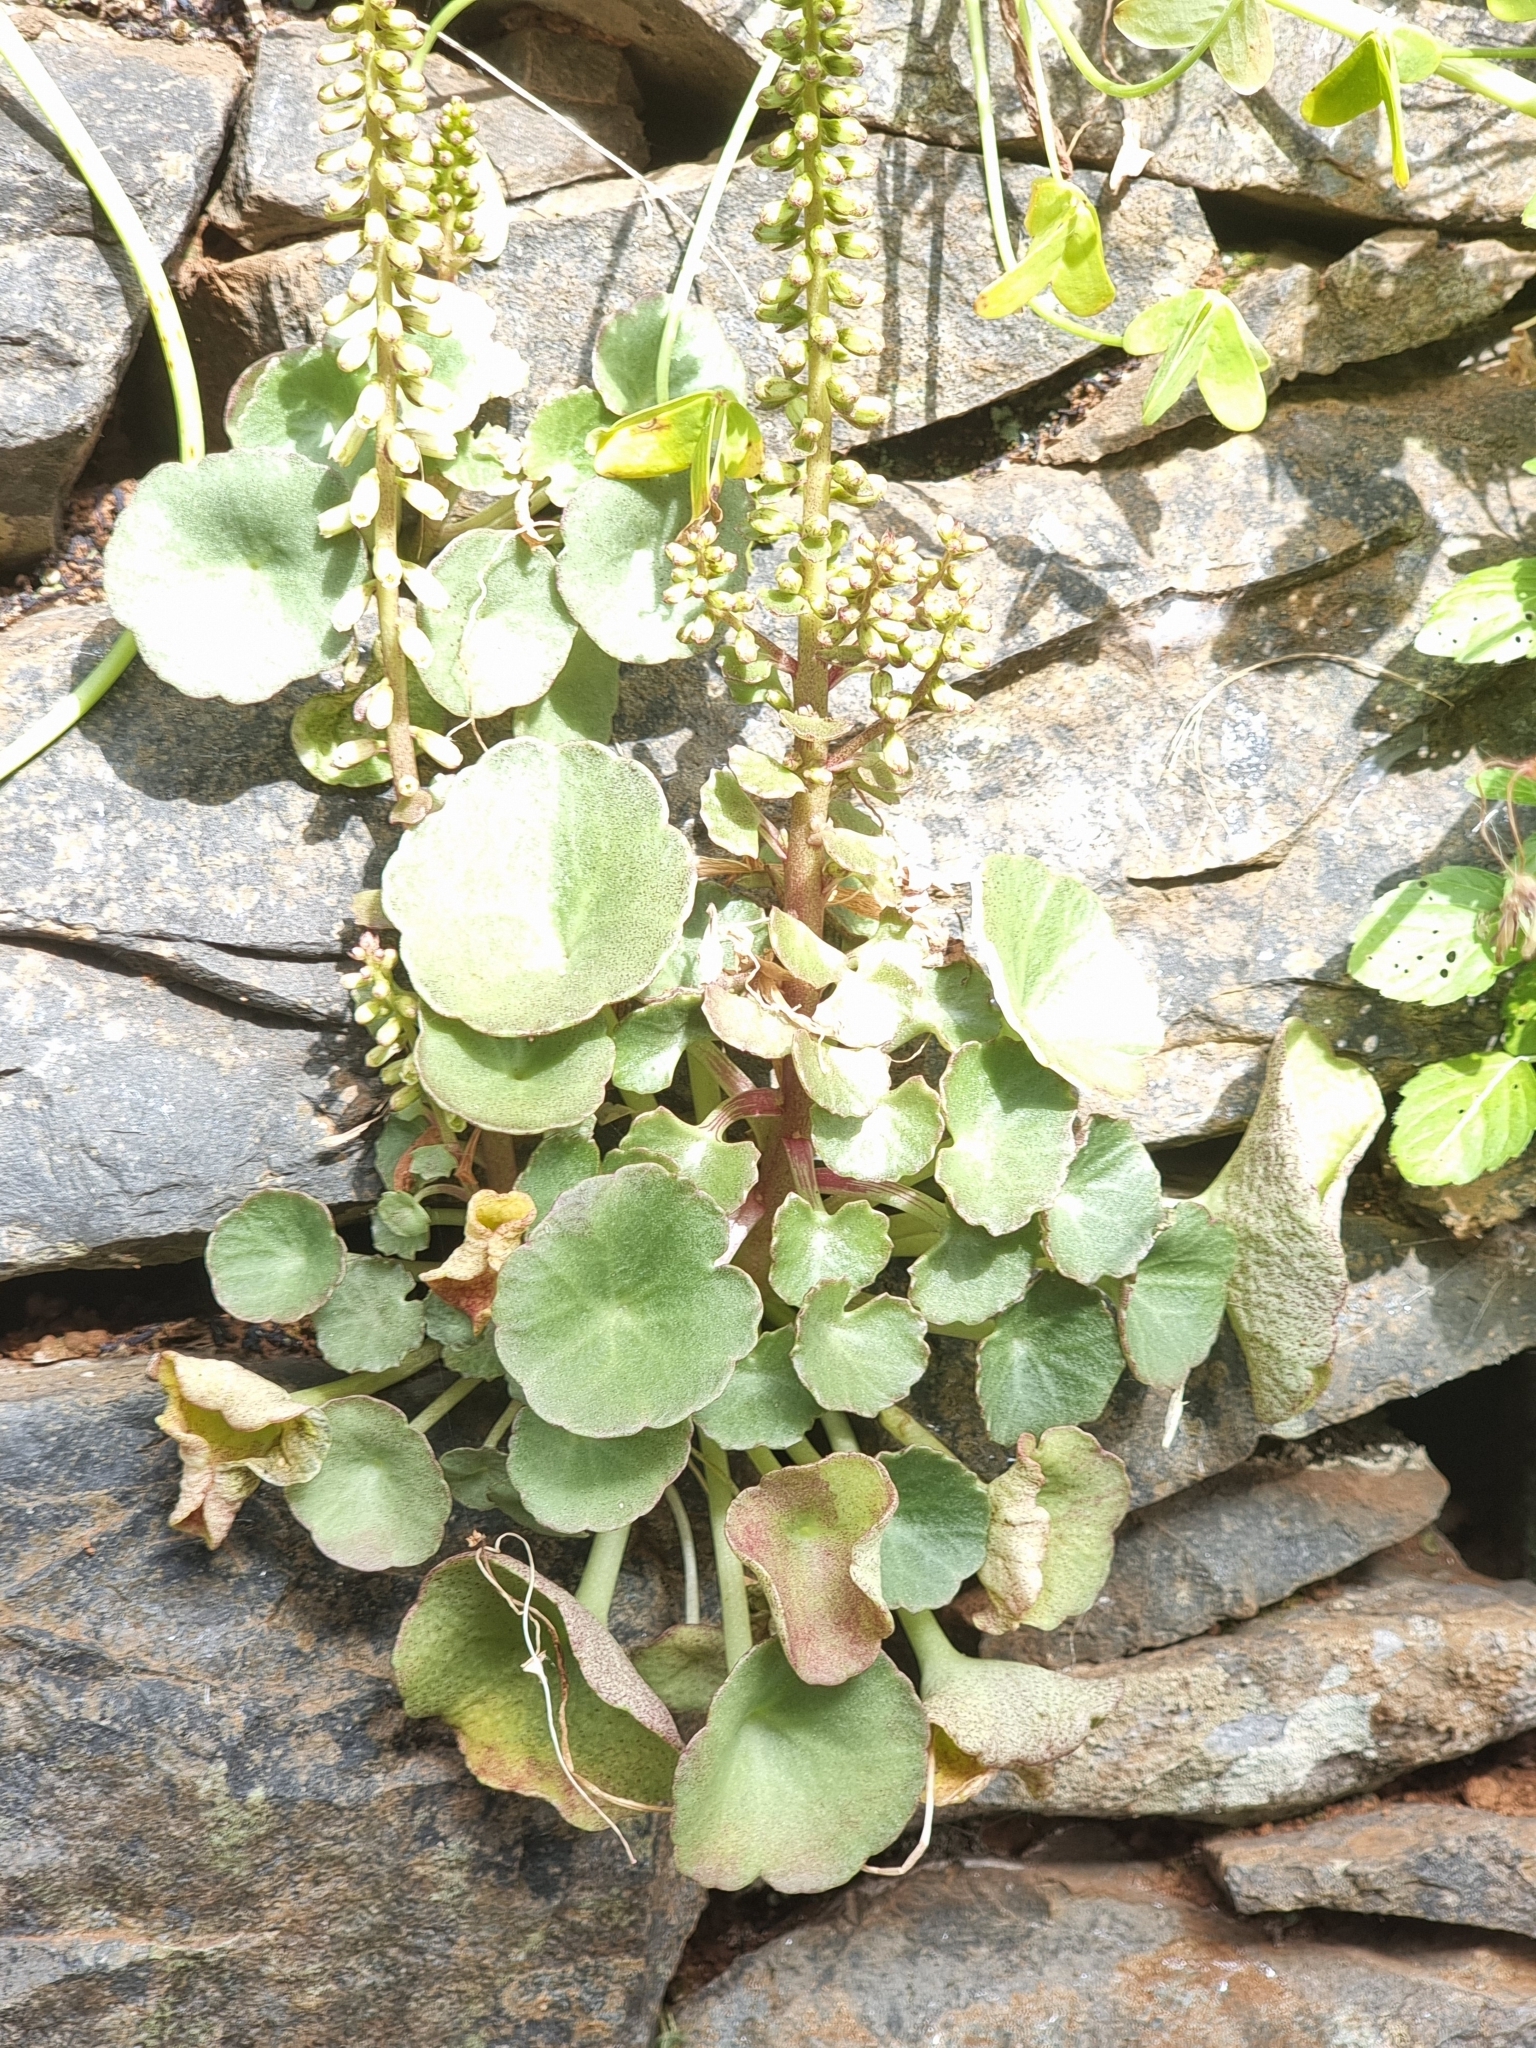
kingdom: Plantae
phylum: Tracheophyta
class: Magnoliopsida
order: Saxifragales
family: Crassulaceae
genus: Umbilicus
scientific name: Umbilicus rupestris
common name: Navelwort
